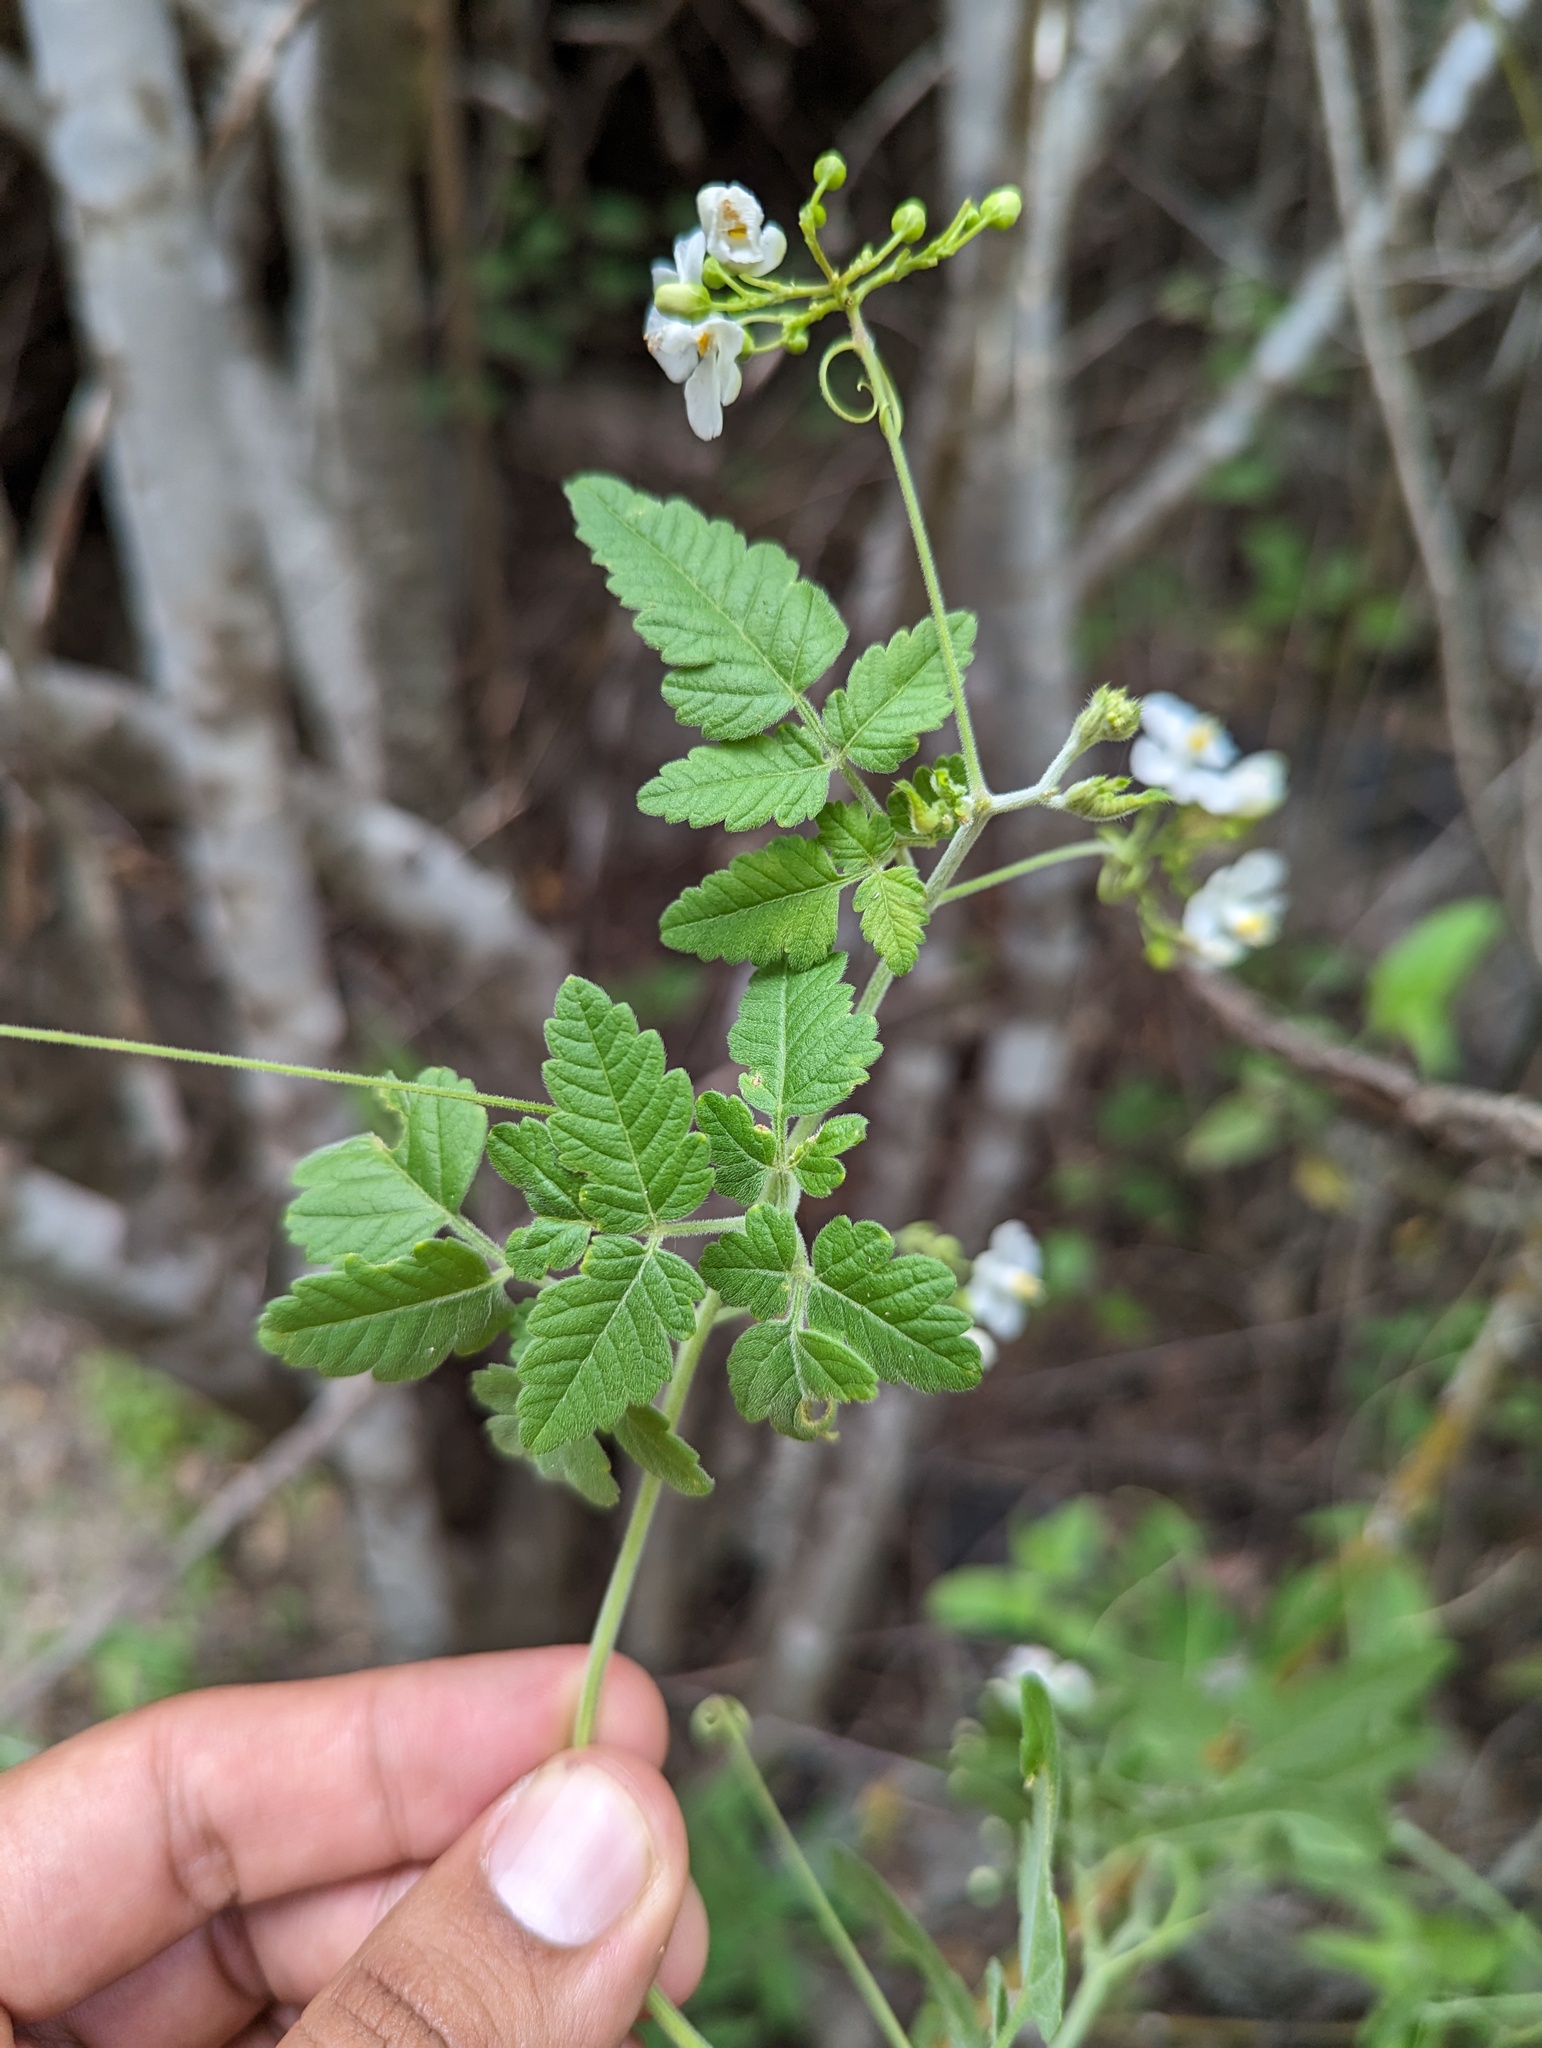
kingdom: Plantae
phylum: Tracheophyta
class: Magnoliopsida
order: Sapindales
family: Sapindaceae
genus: Cardiospermum
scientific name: Cardiospermum corindum
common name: Faux persil
